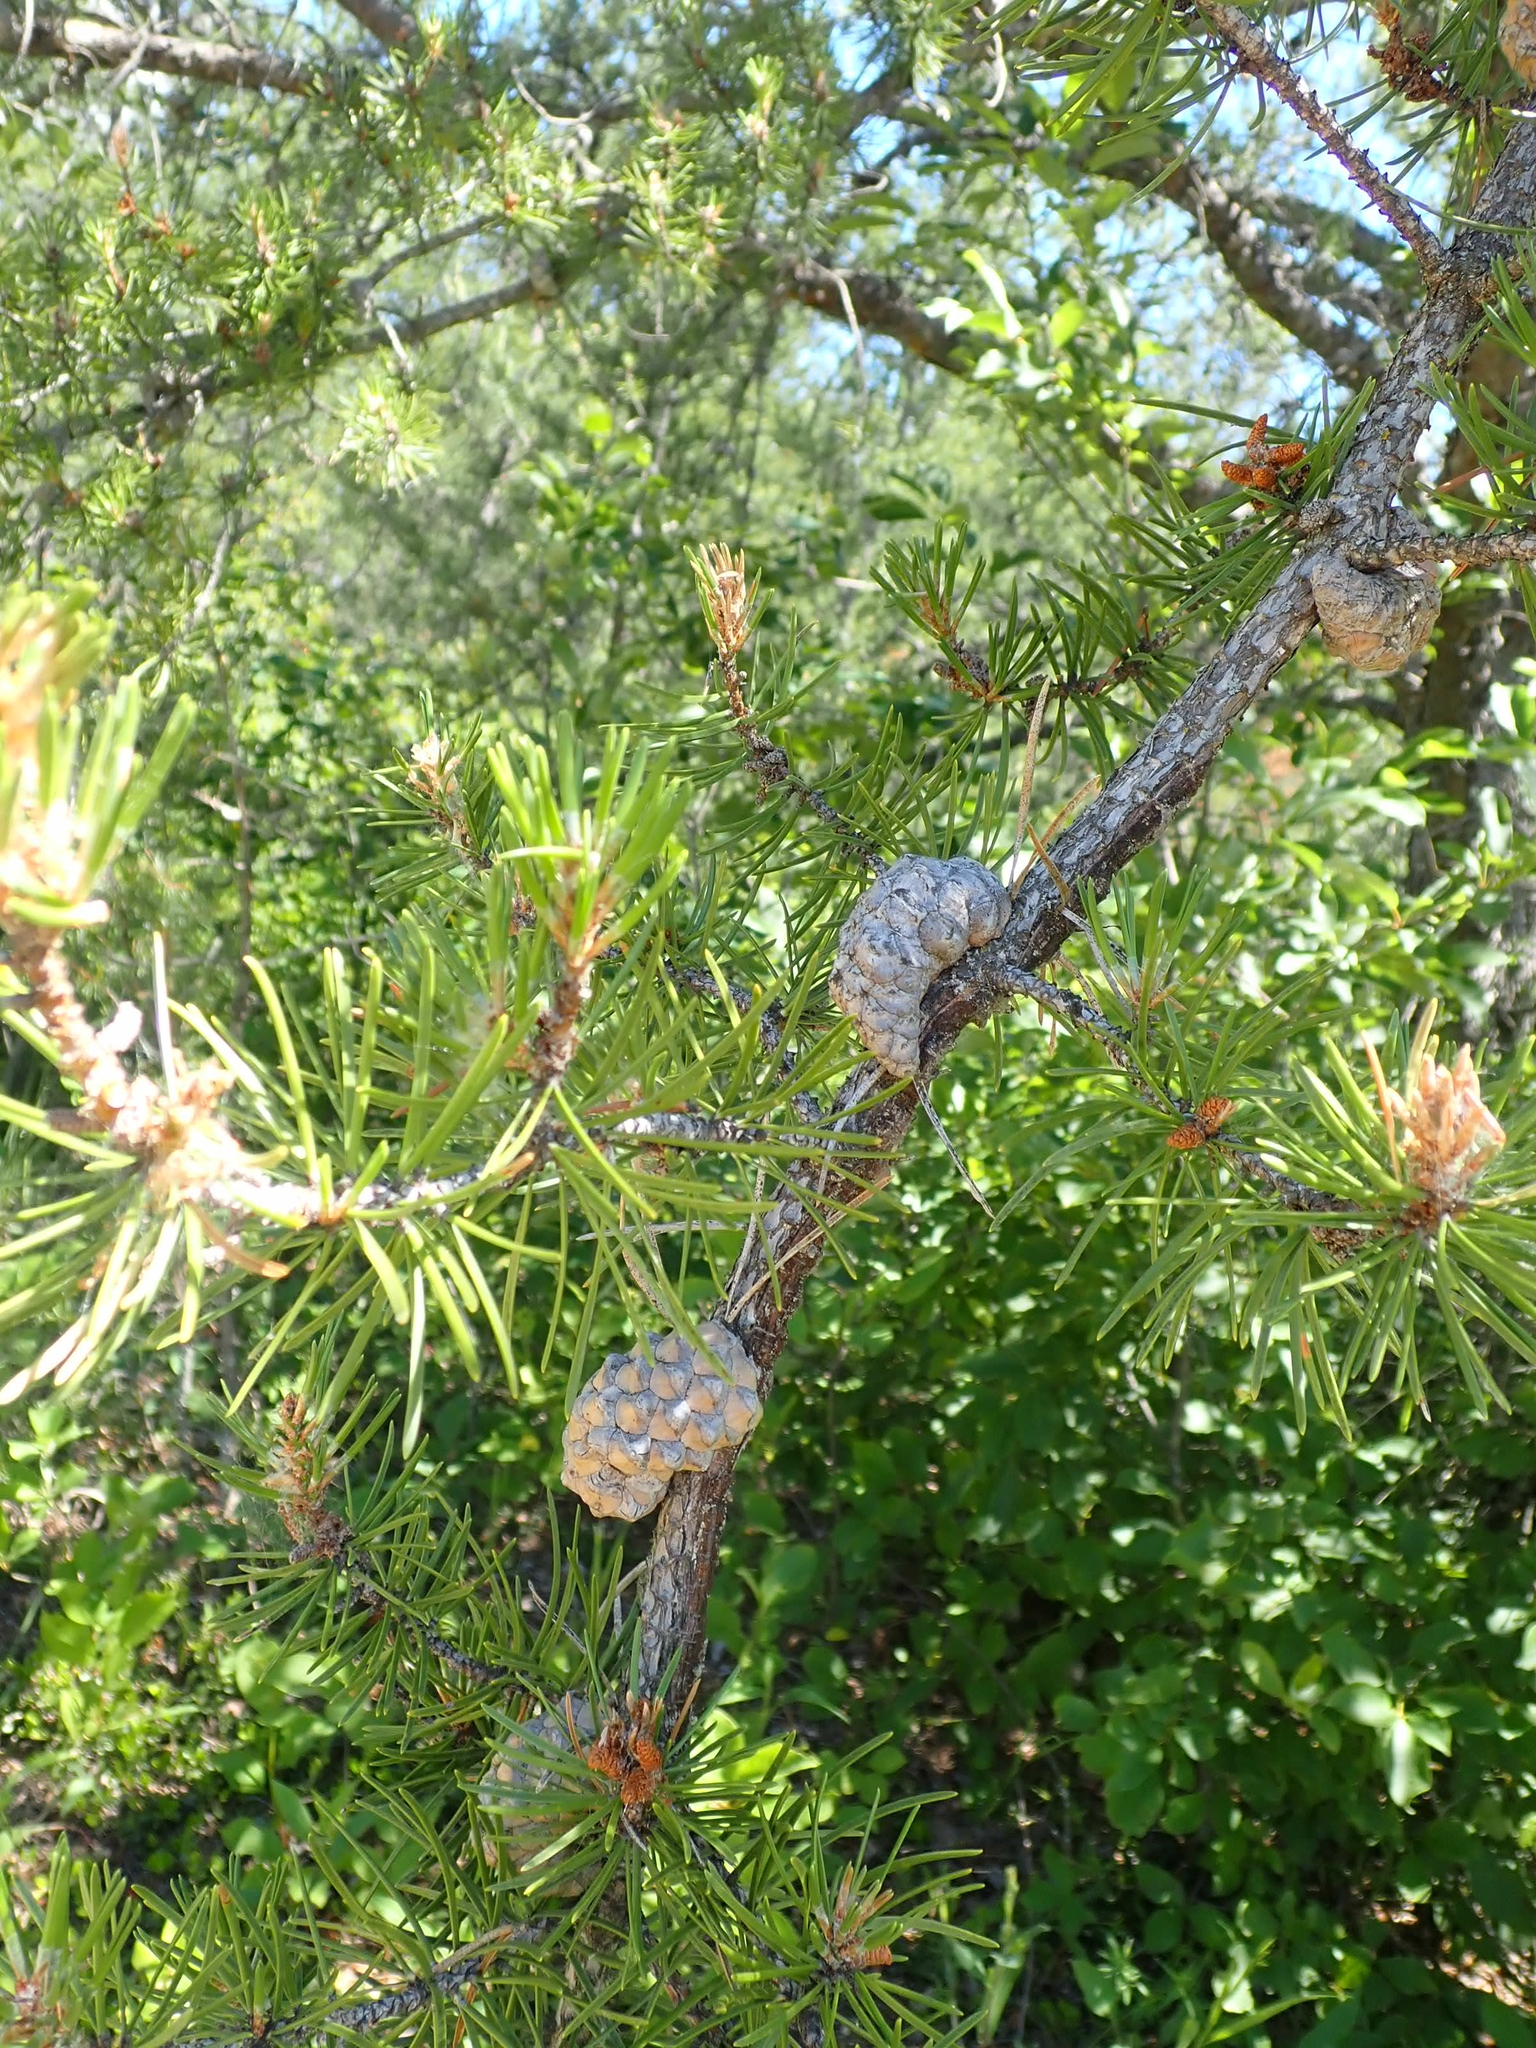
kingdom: Plantae
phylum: Tracheophyta
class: Pinopsida
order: Pinales
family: Pinaceae
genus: Pinus
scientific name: Pinus banksiana
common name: Jack pine
